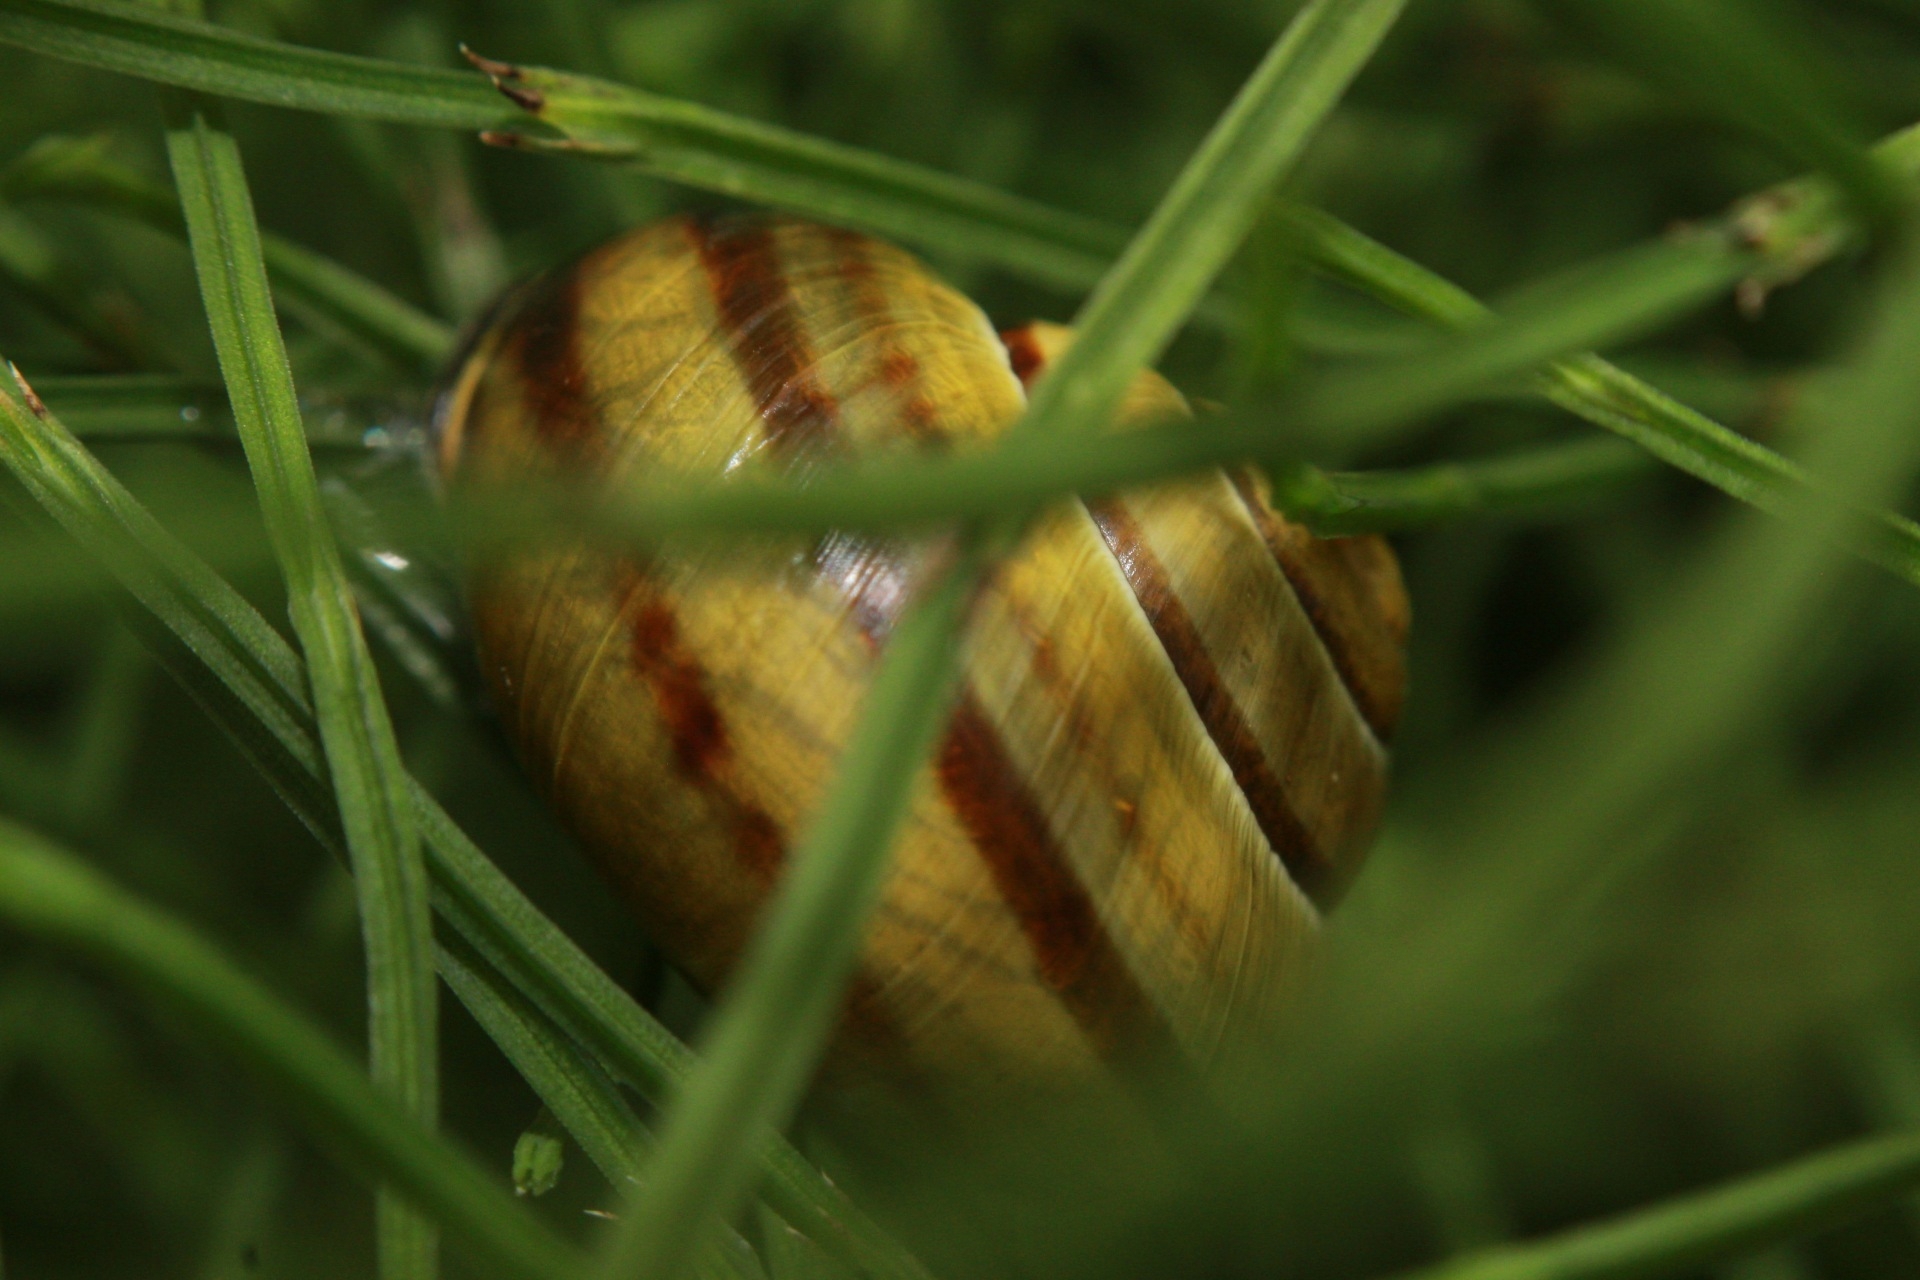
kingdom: Animalia
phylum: Mollusca
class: Gastropoda
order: Stylommatophora
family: Helicidae
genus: Cepaea
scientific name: Cepaea nemoralis
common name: Grovesnail
